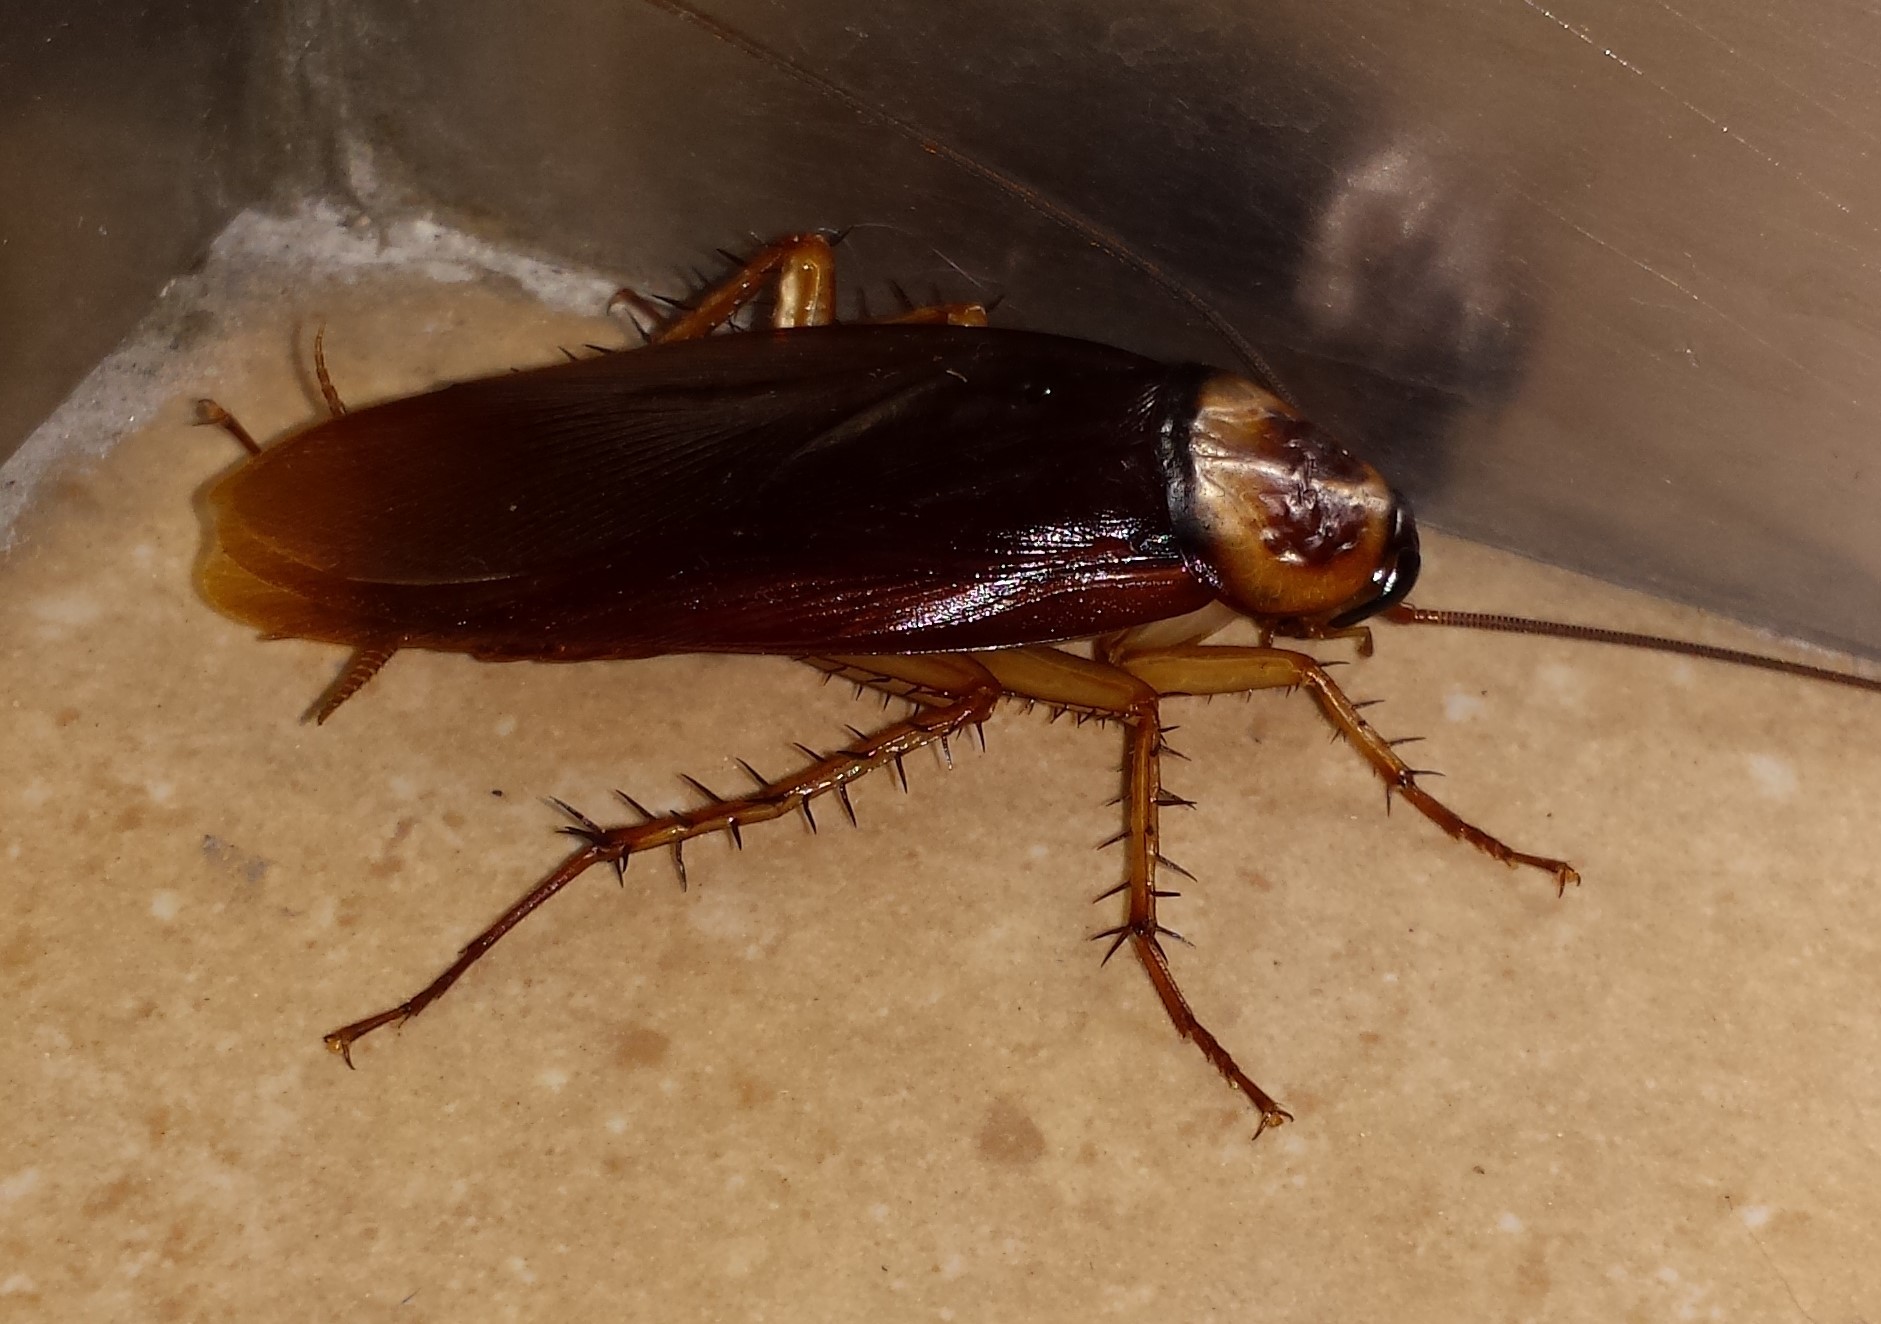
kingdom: Animalia
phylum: Arthropoda
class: Insecta
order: Blattodea
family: Blattidae
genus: Periplaneta
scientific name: Periplaneta americana
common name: American cockroach
